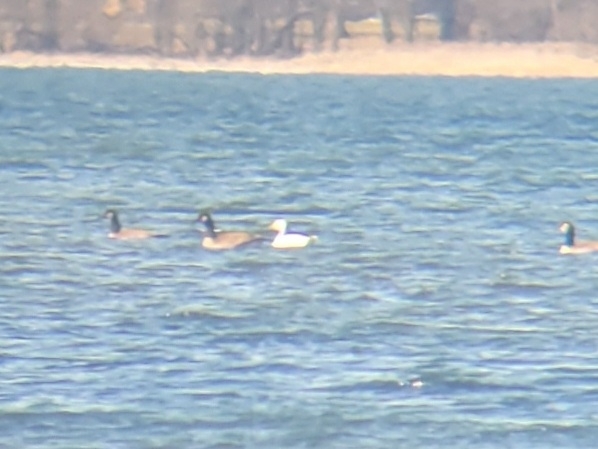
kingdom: Animalia
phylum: Chordata
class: Aves
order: Anseriformes
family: Anatidae
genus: Anser
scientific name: Anser caerulescens
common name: Snow goose
